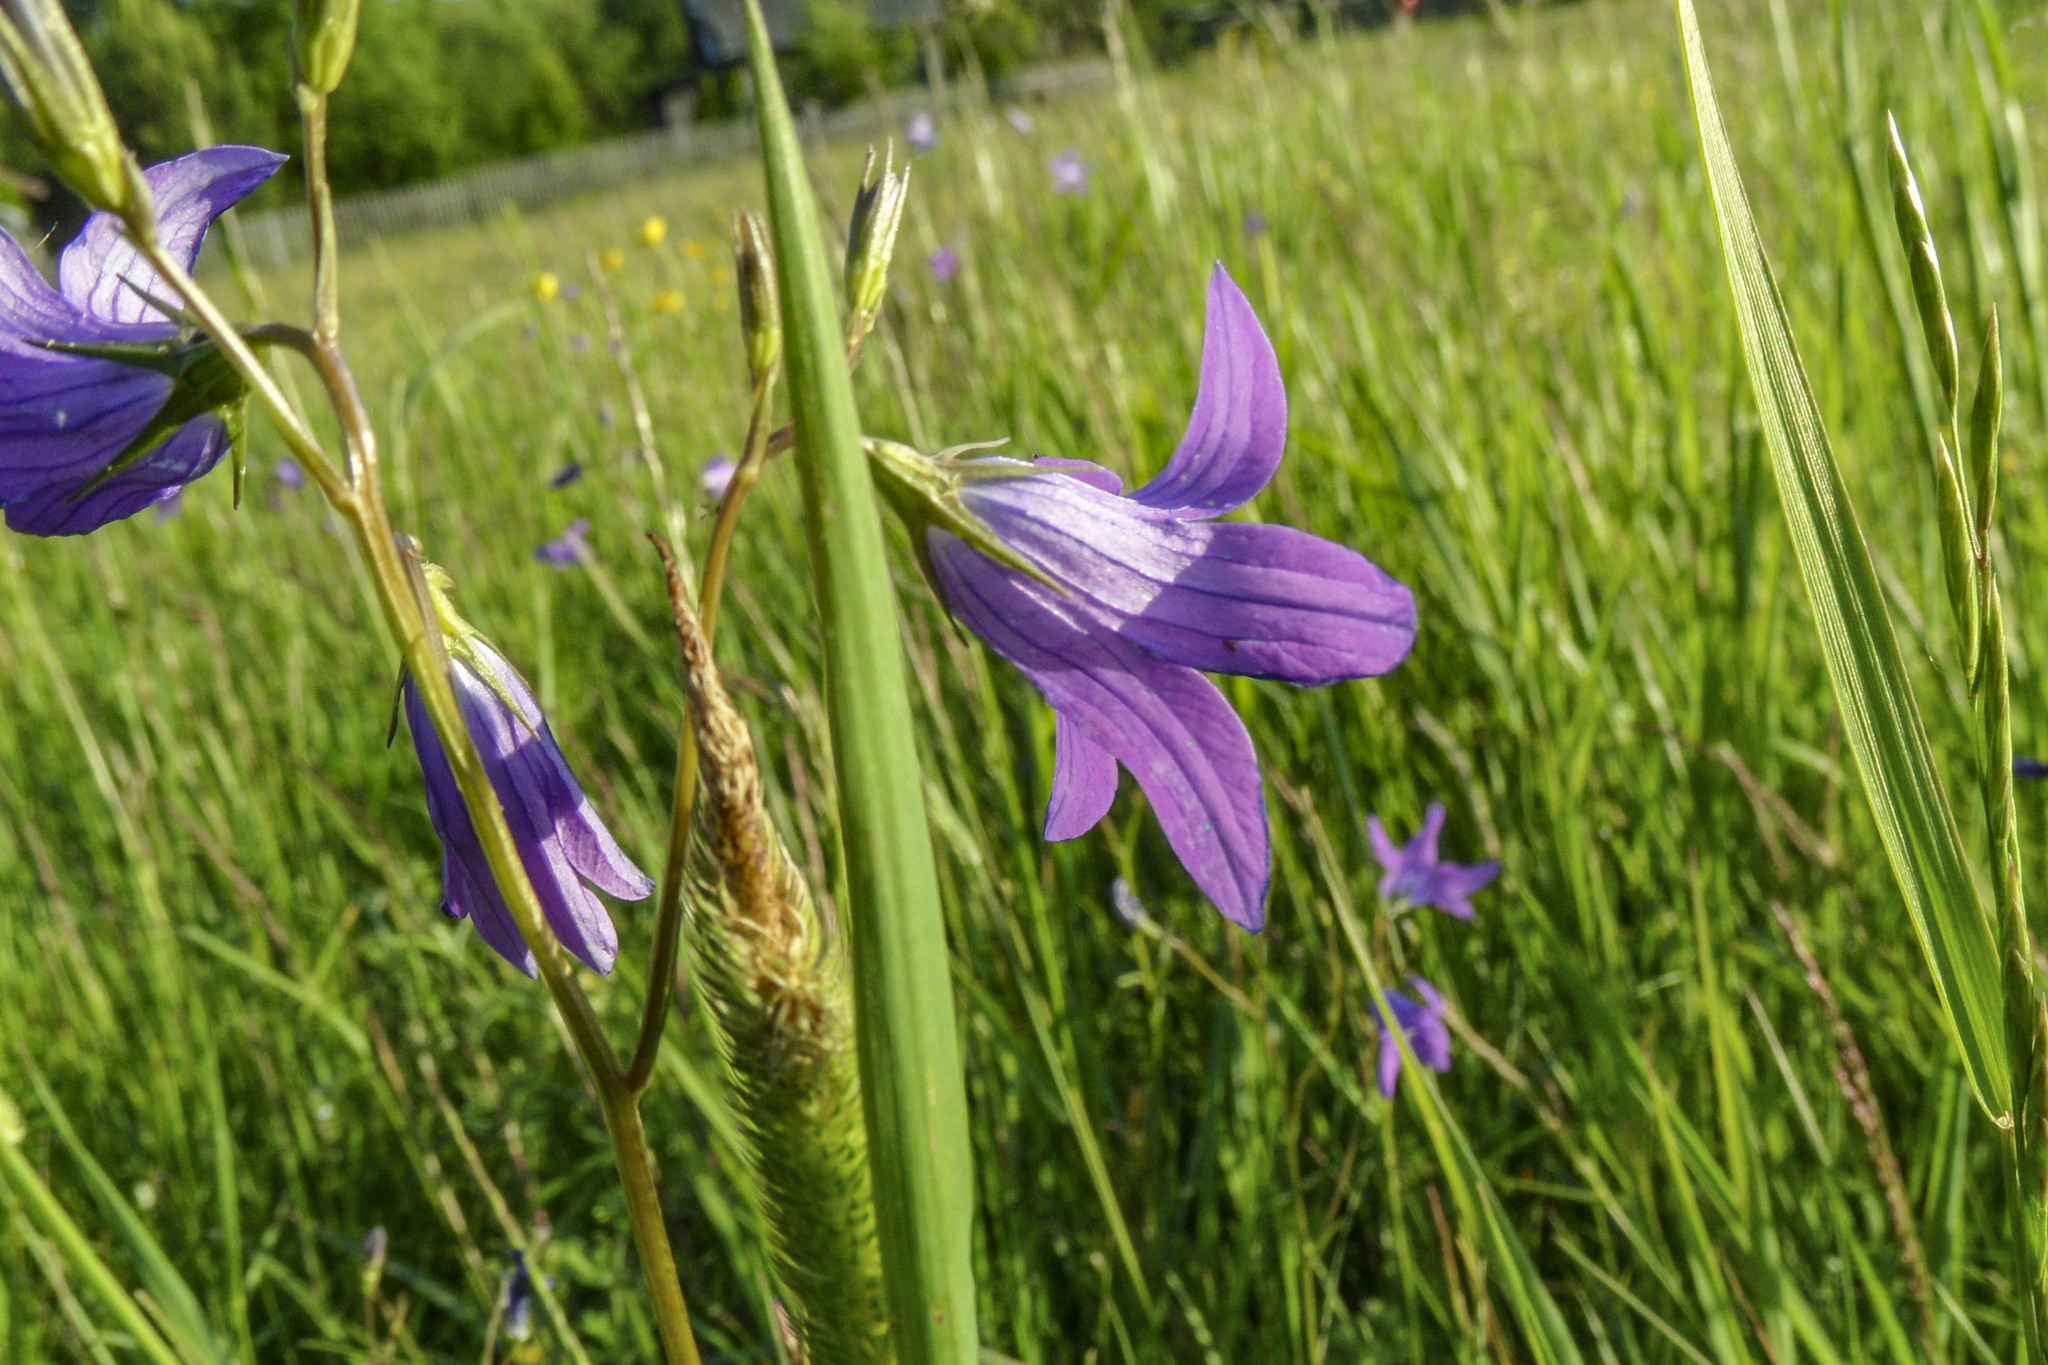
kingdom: Plantae
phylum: Tracheophyta
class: Magnoliopsida
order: Asterales
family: Campanulaceae
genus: Campanula
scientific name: Campanula patula
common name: Spreading bellflower
